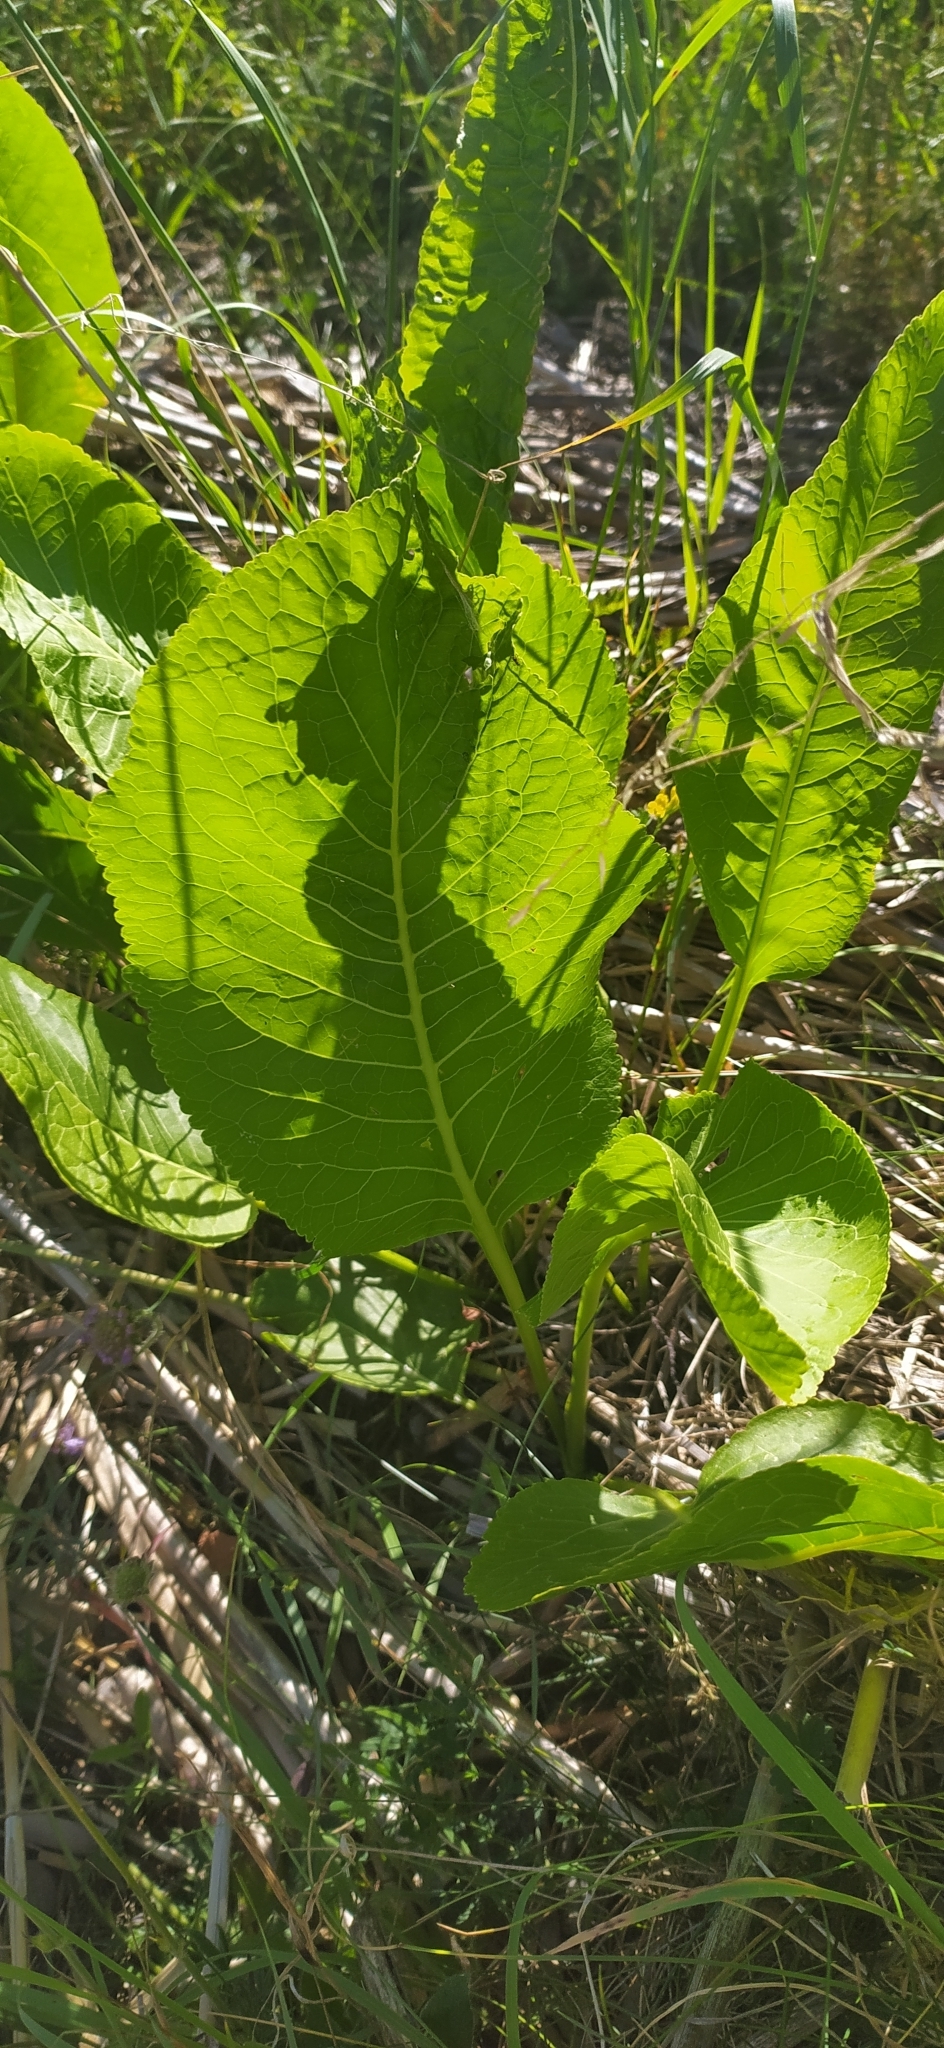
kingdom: Plantae
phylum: Tracheophyta
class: Magnoliopsida
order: Brassicales
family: Brassicaceae
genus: Armoracia
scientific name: Armoracia rusticana
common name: Horseradish
